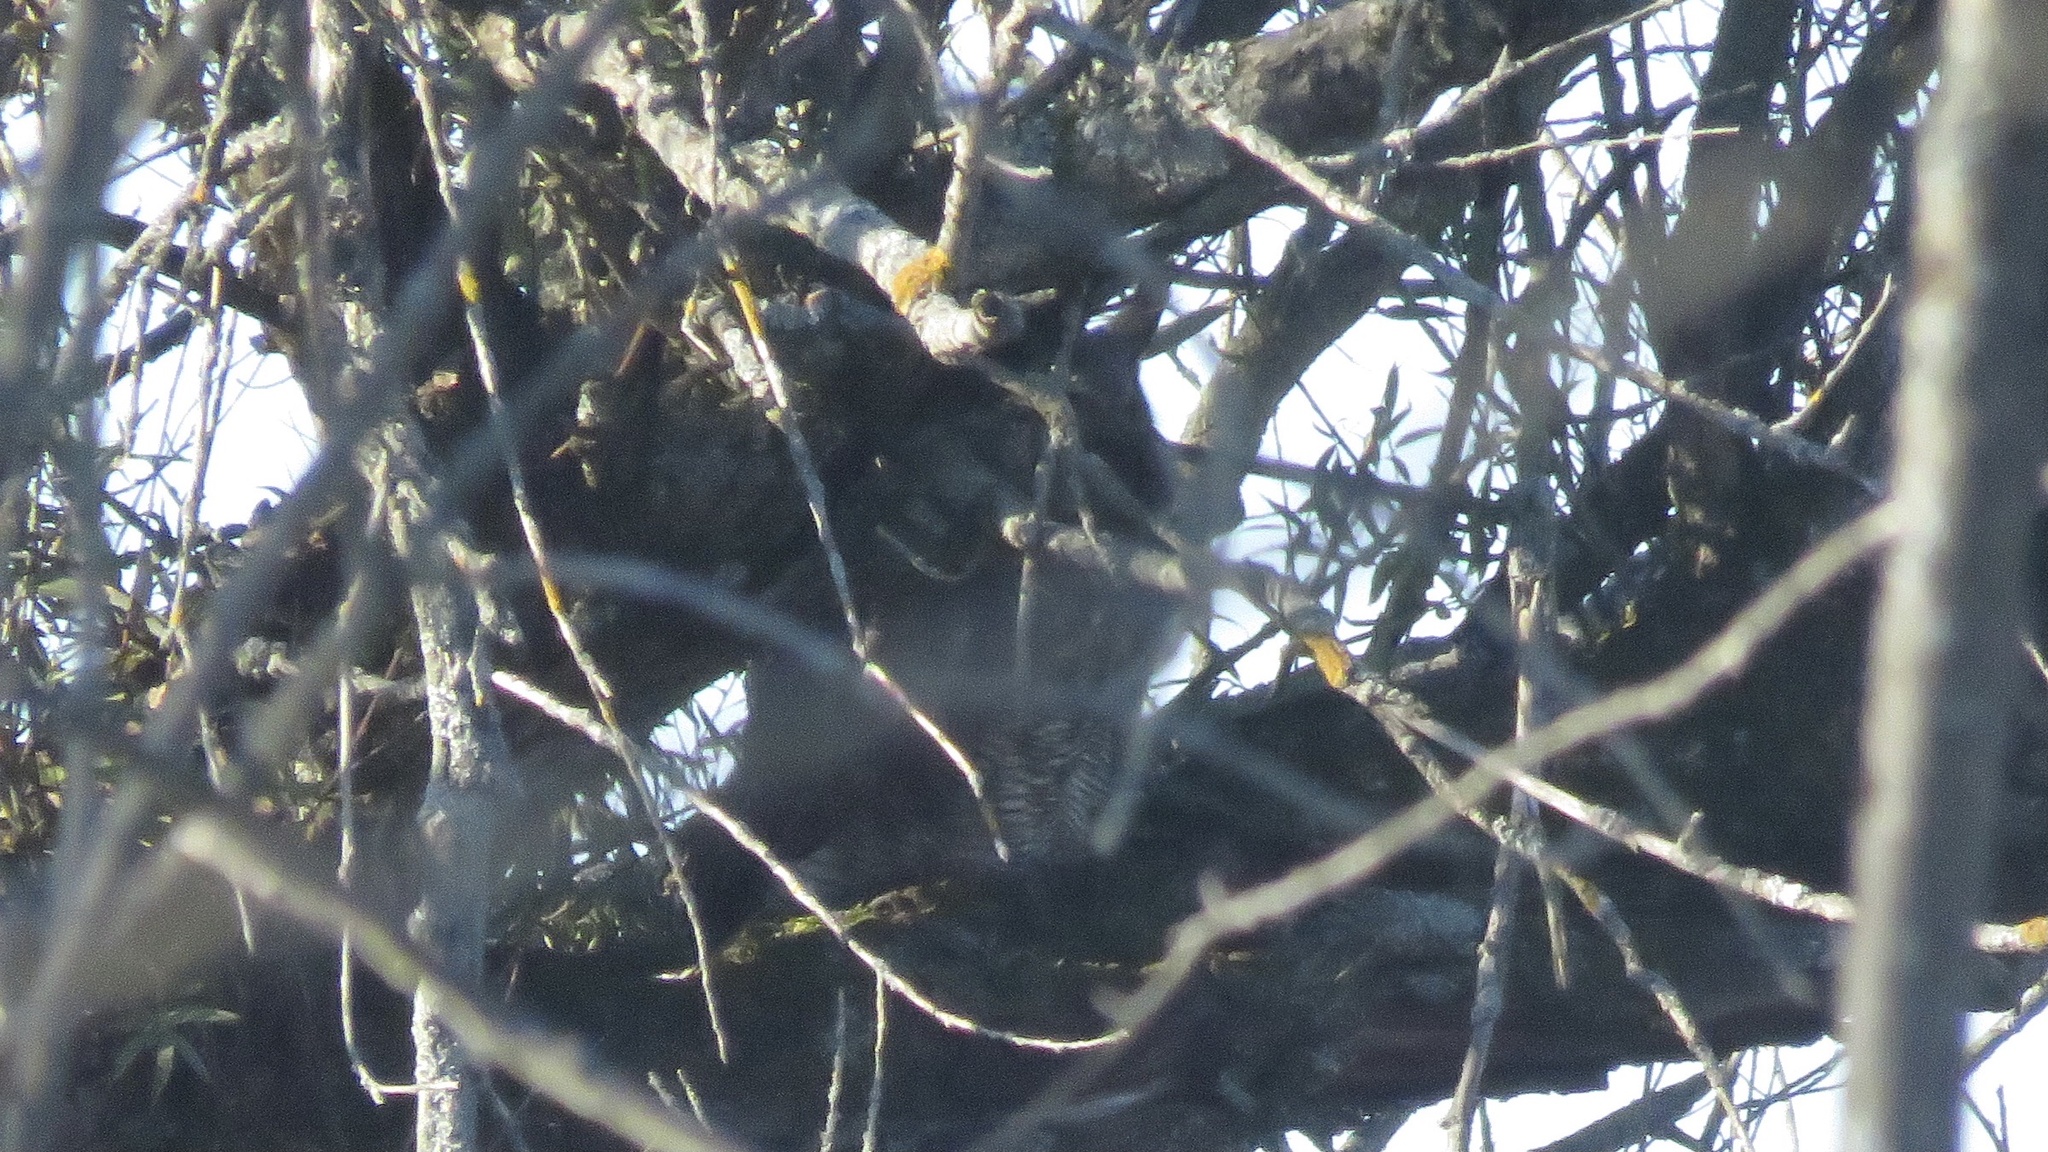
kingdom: Animalia
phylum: Chordata
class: Aves
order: Strigiformes
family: Strigidae
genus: Bubo
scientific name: Bubo virginianus
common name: Great horned owl
